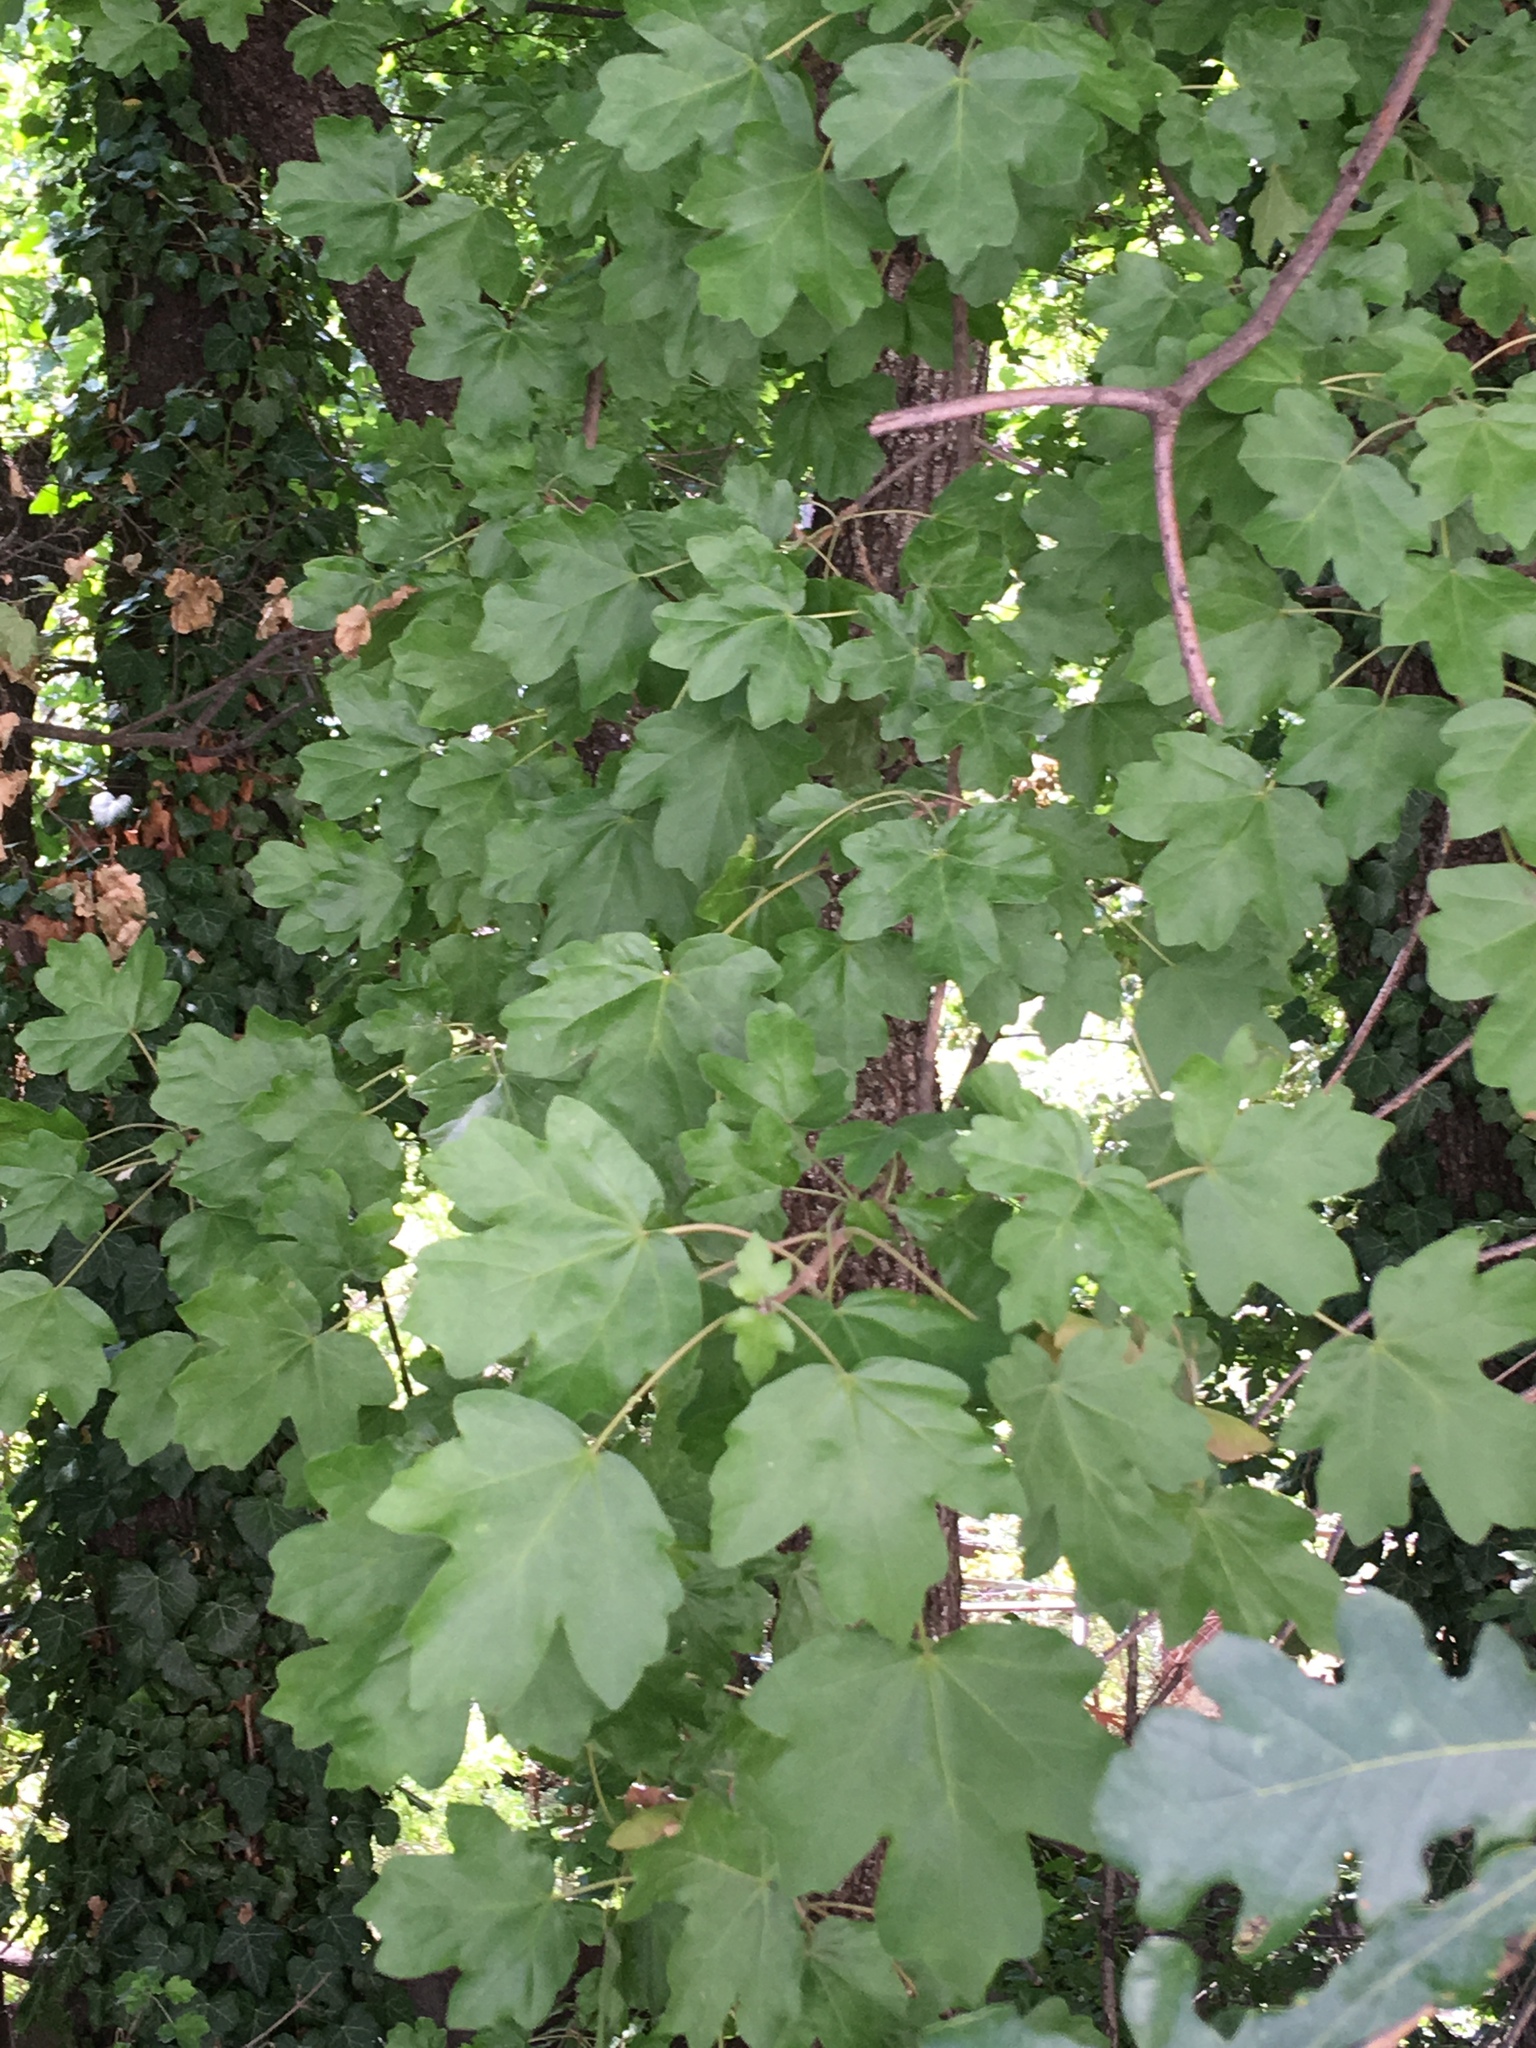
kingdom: Plantae
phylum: Tracheophyta
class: Magnoliopsida
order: Sapindales
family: Sapindaceae
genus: Acer
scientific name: Acer campestre
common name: Field maple
